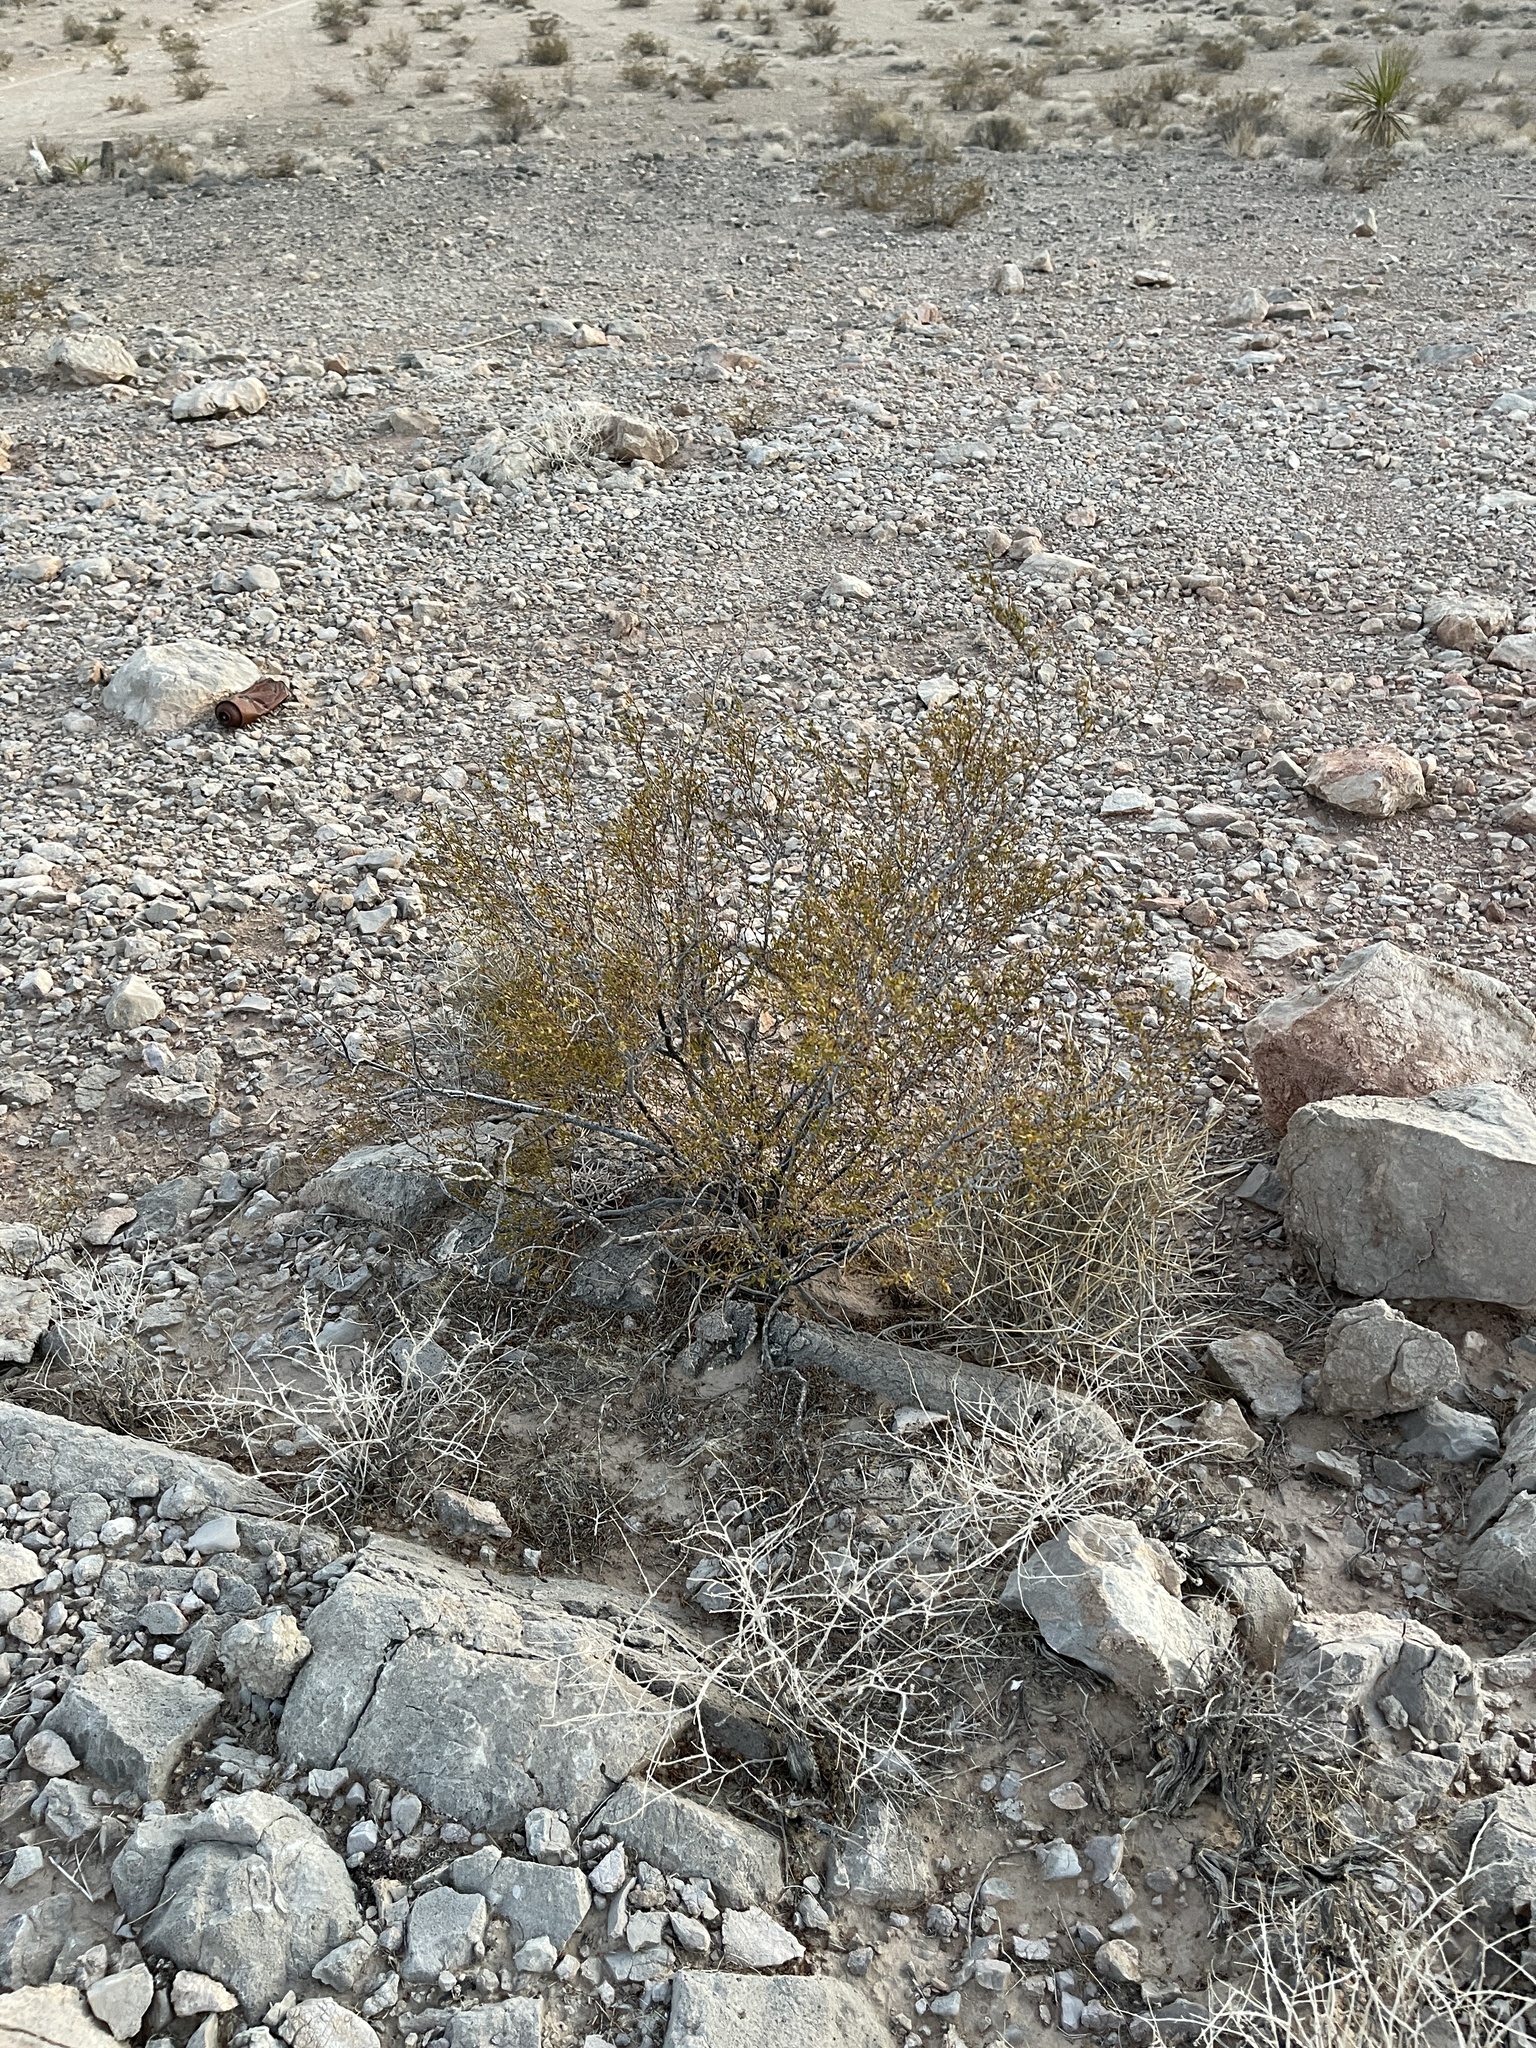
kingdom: Plantae
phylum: Tracheophyta
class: Magnoliopsida
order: Zygophyllales
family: Zygophyllaceae
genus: Larrea
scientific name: Larrea tridentata
